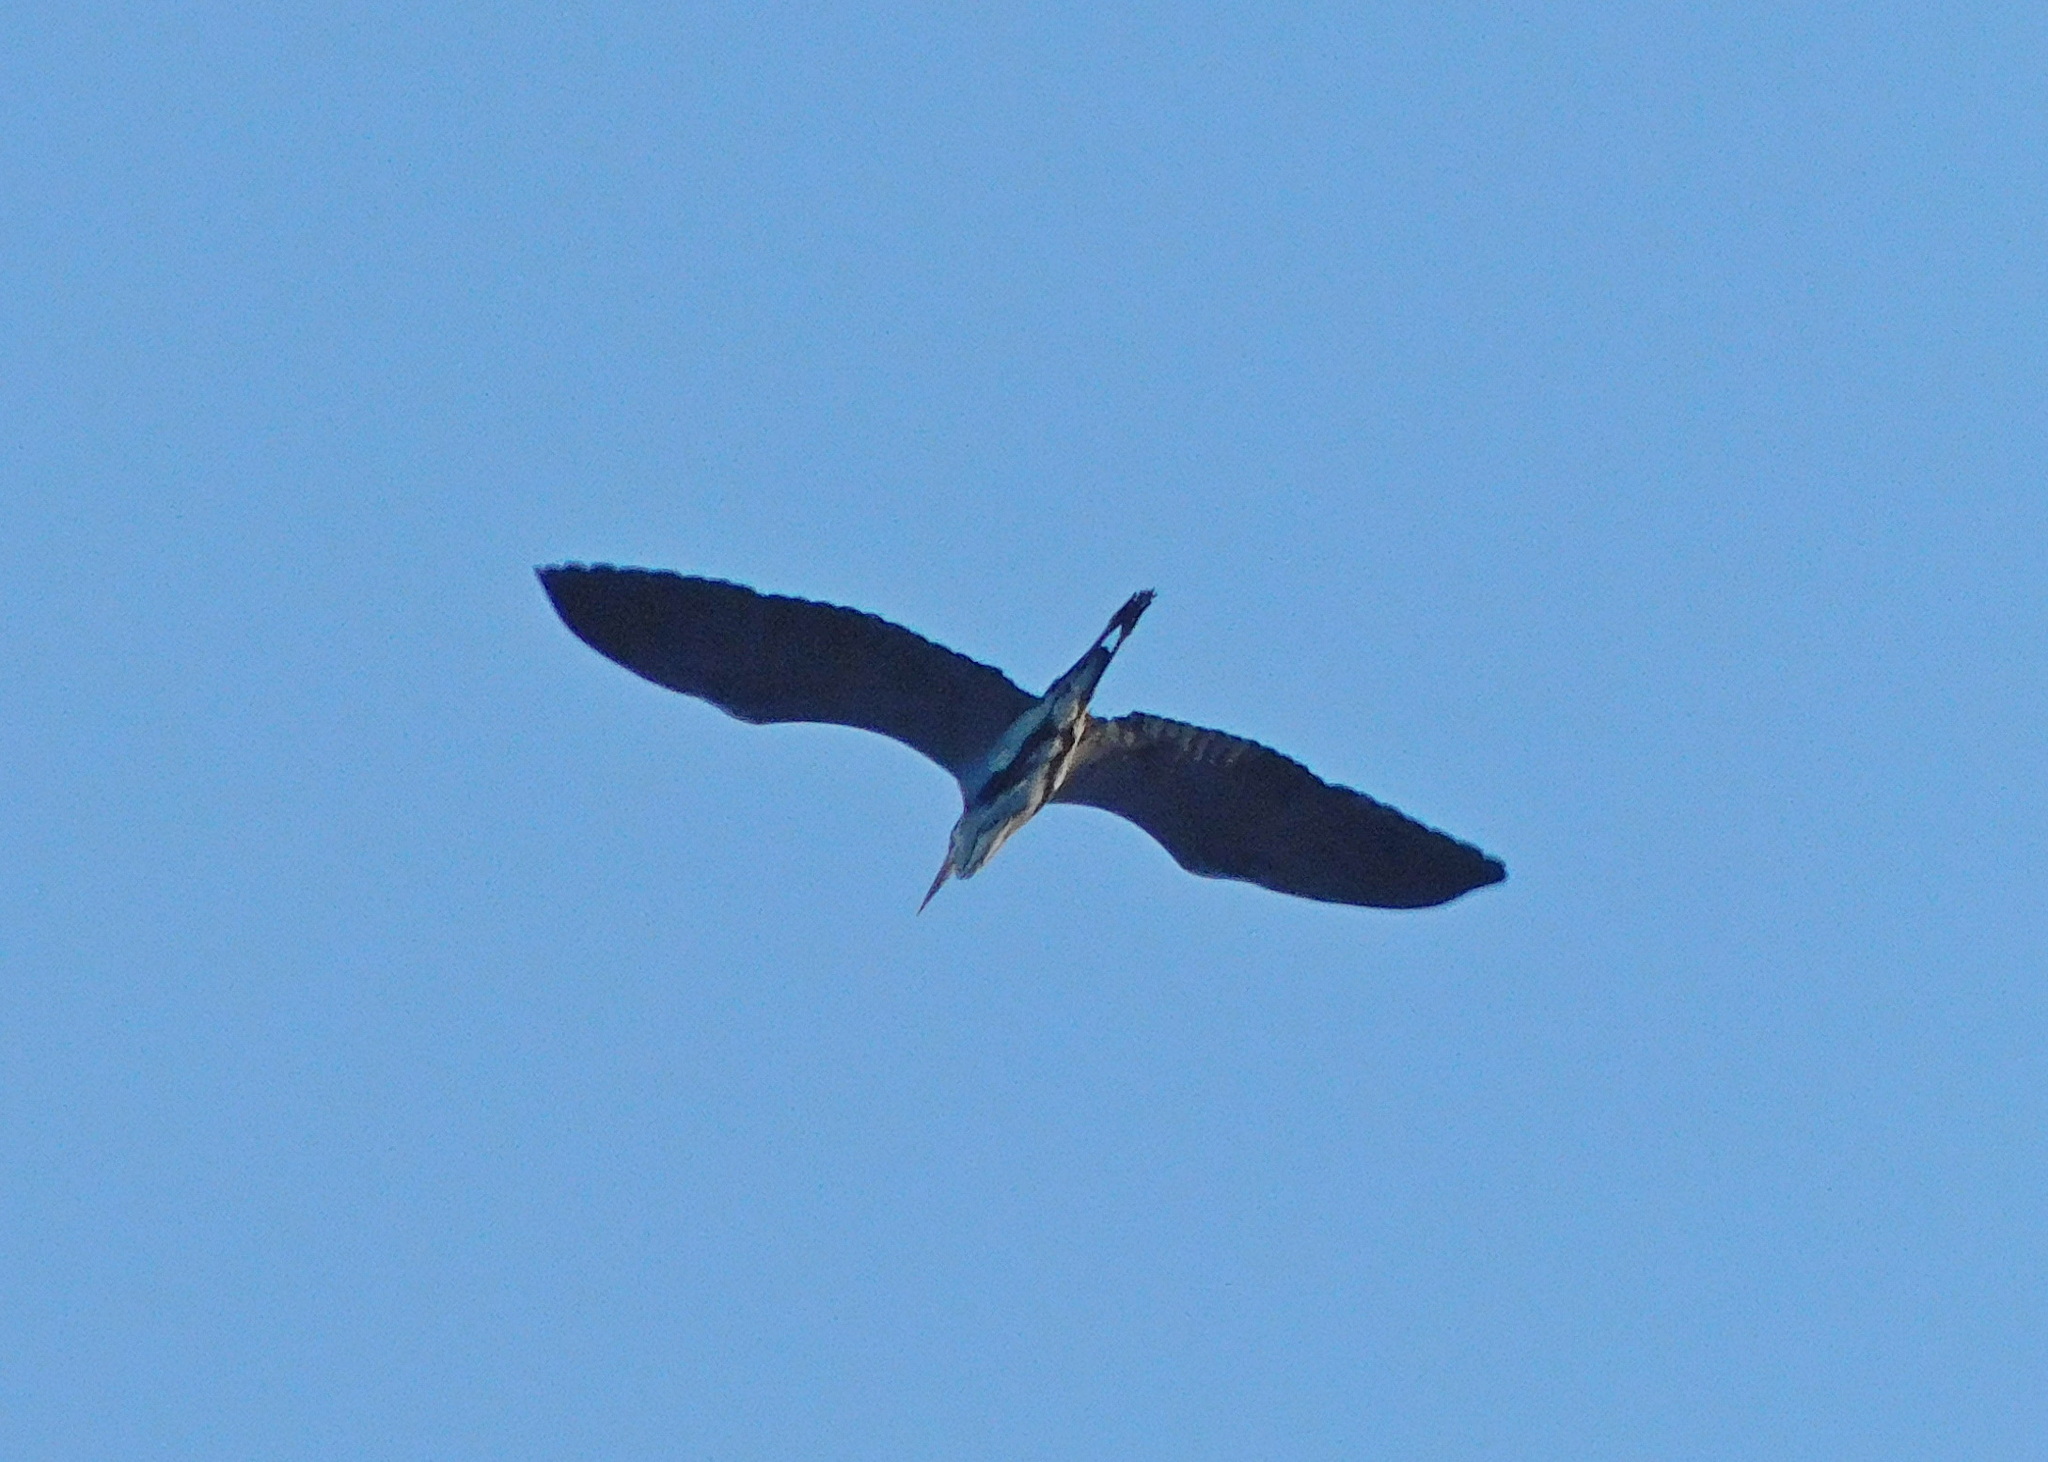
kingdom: Animalia
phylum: Chordata
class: Aves
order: Pelecaniformes
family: Ardeidae
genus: Ardea
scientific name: Ardea cinerea
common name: Grey heron
